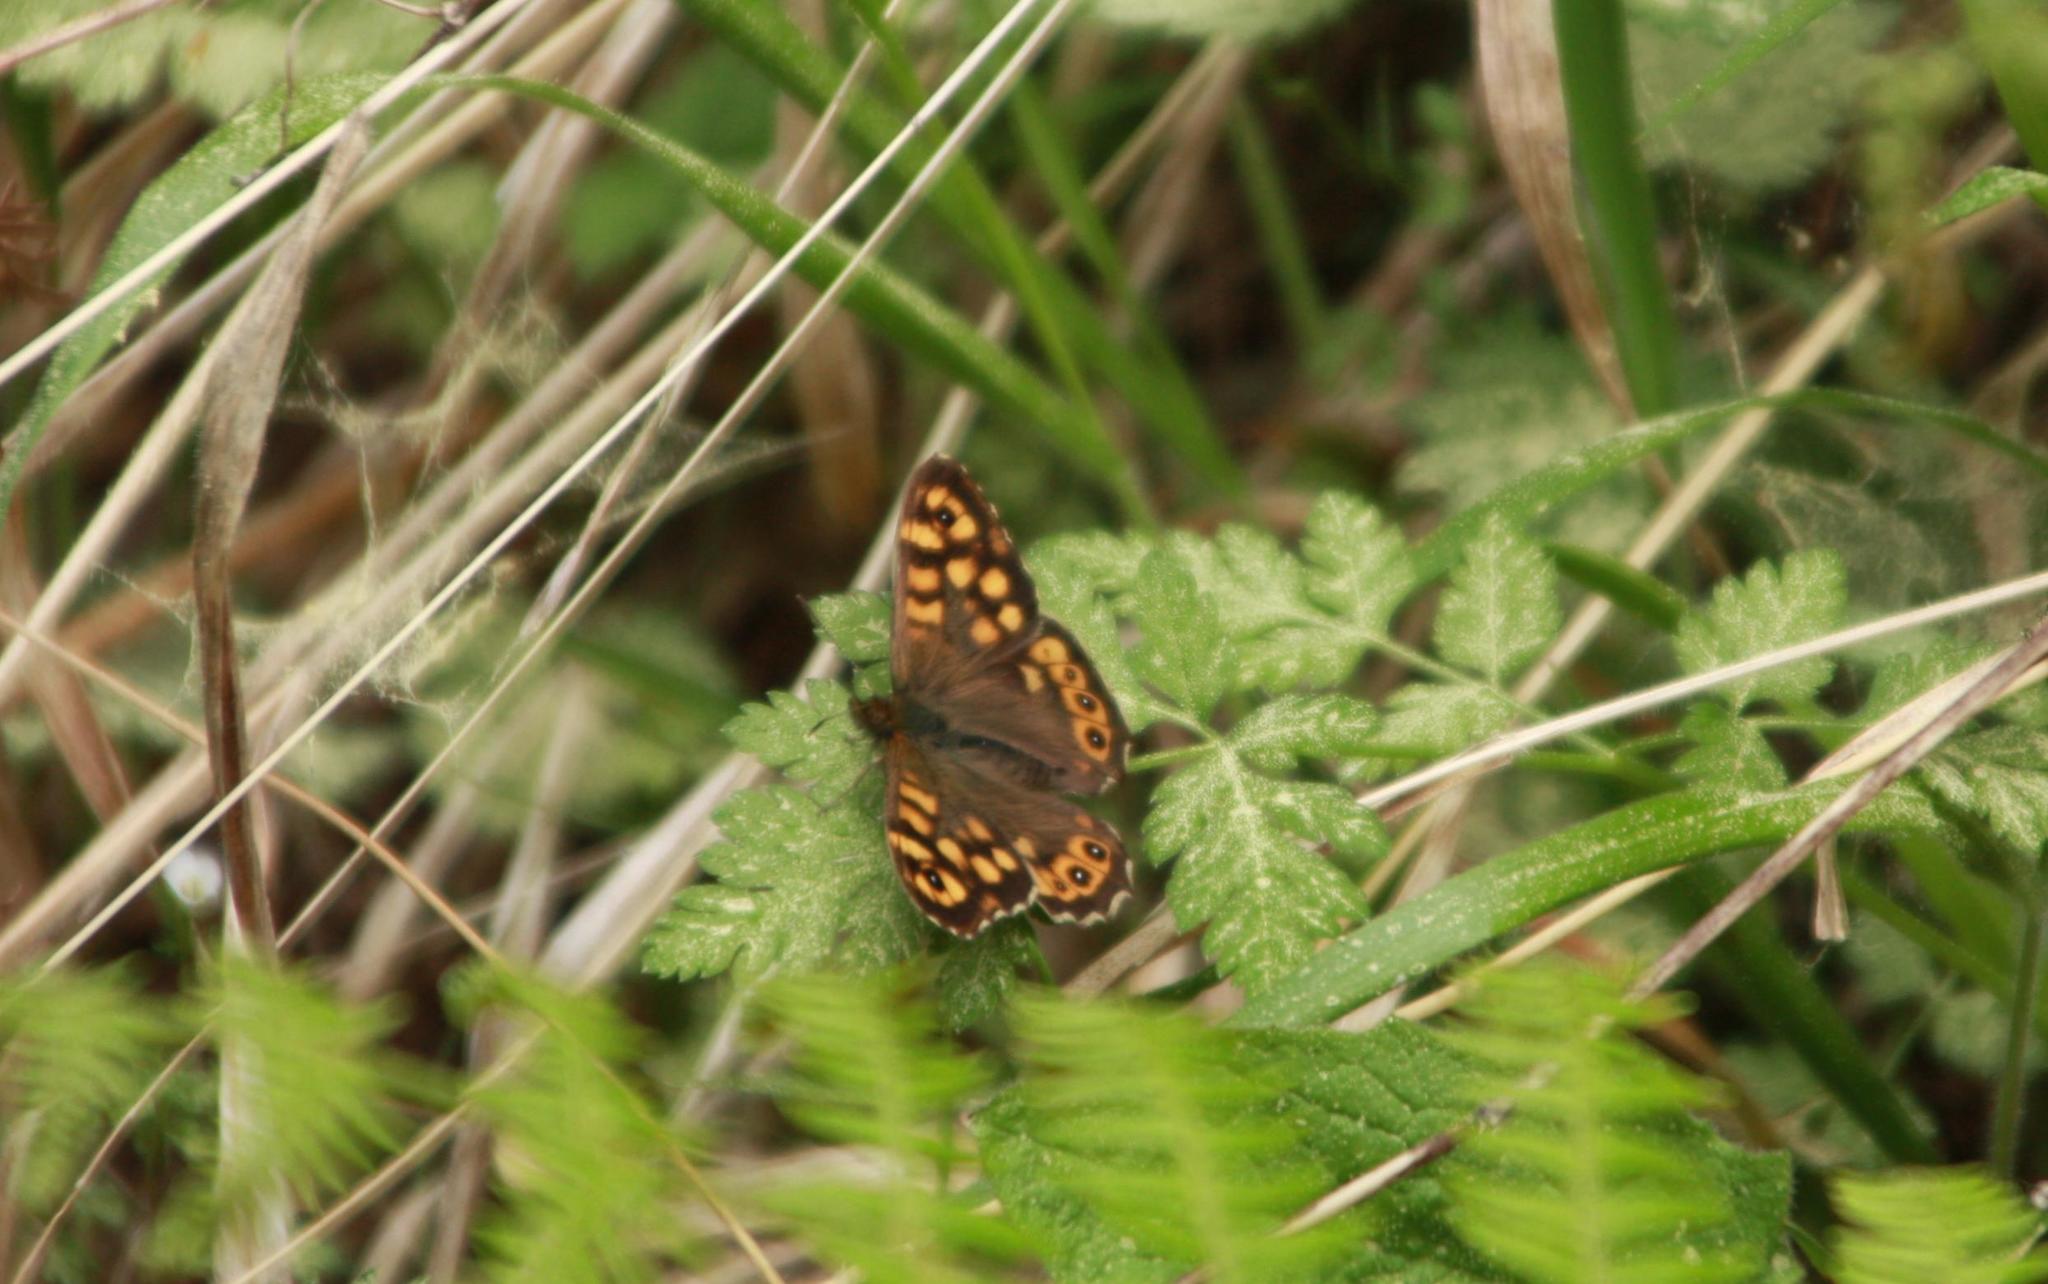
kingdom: Animalia
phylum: Arthropoda
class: Insecta
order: Lepidoptera
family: Nymphalidae
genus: Pararge
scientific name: Pararge aegeria
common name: Speckled wood
